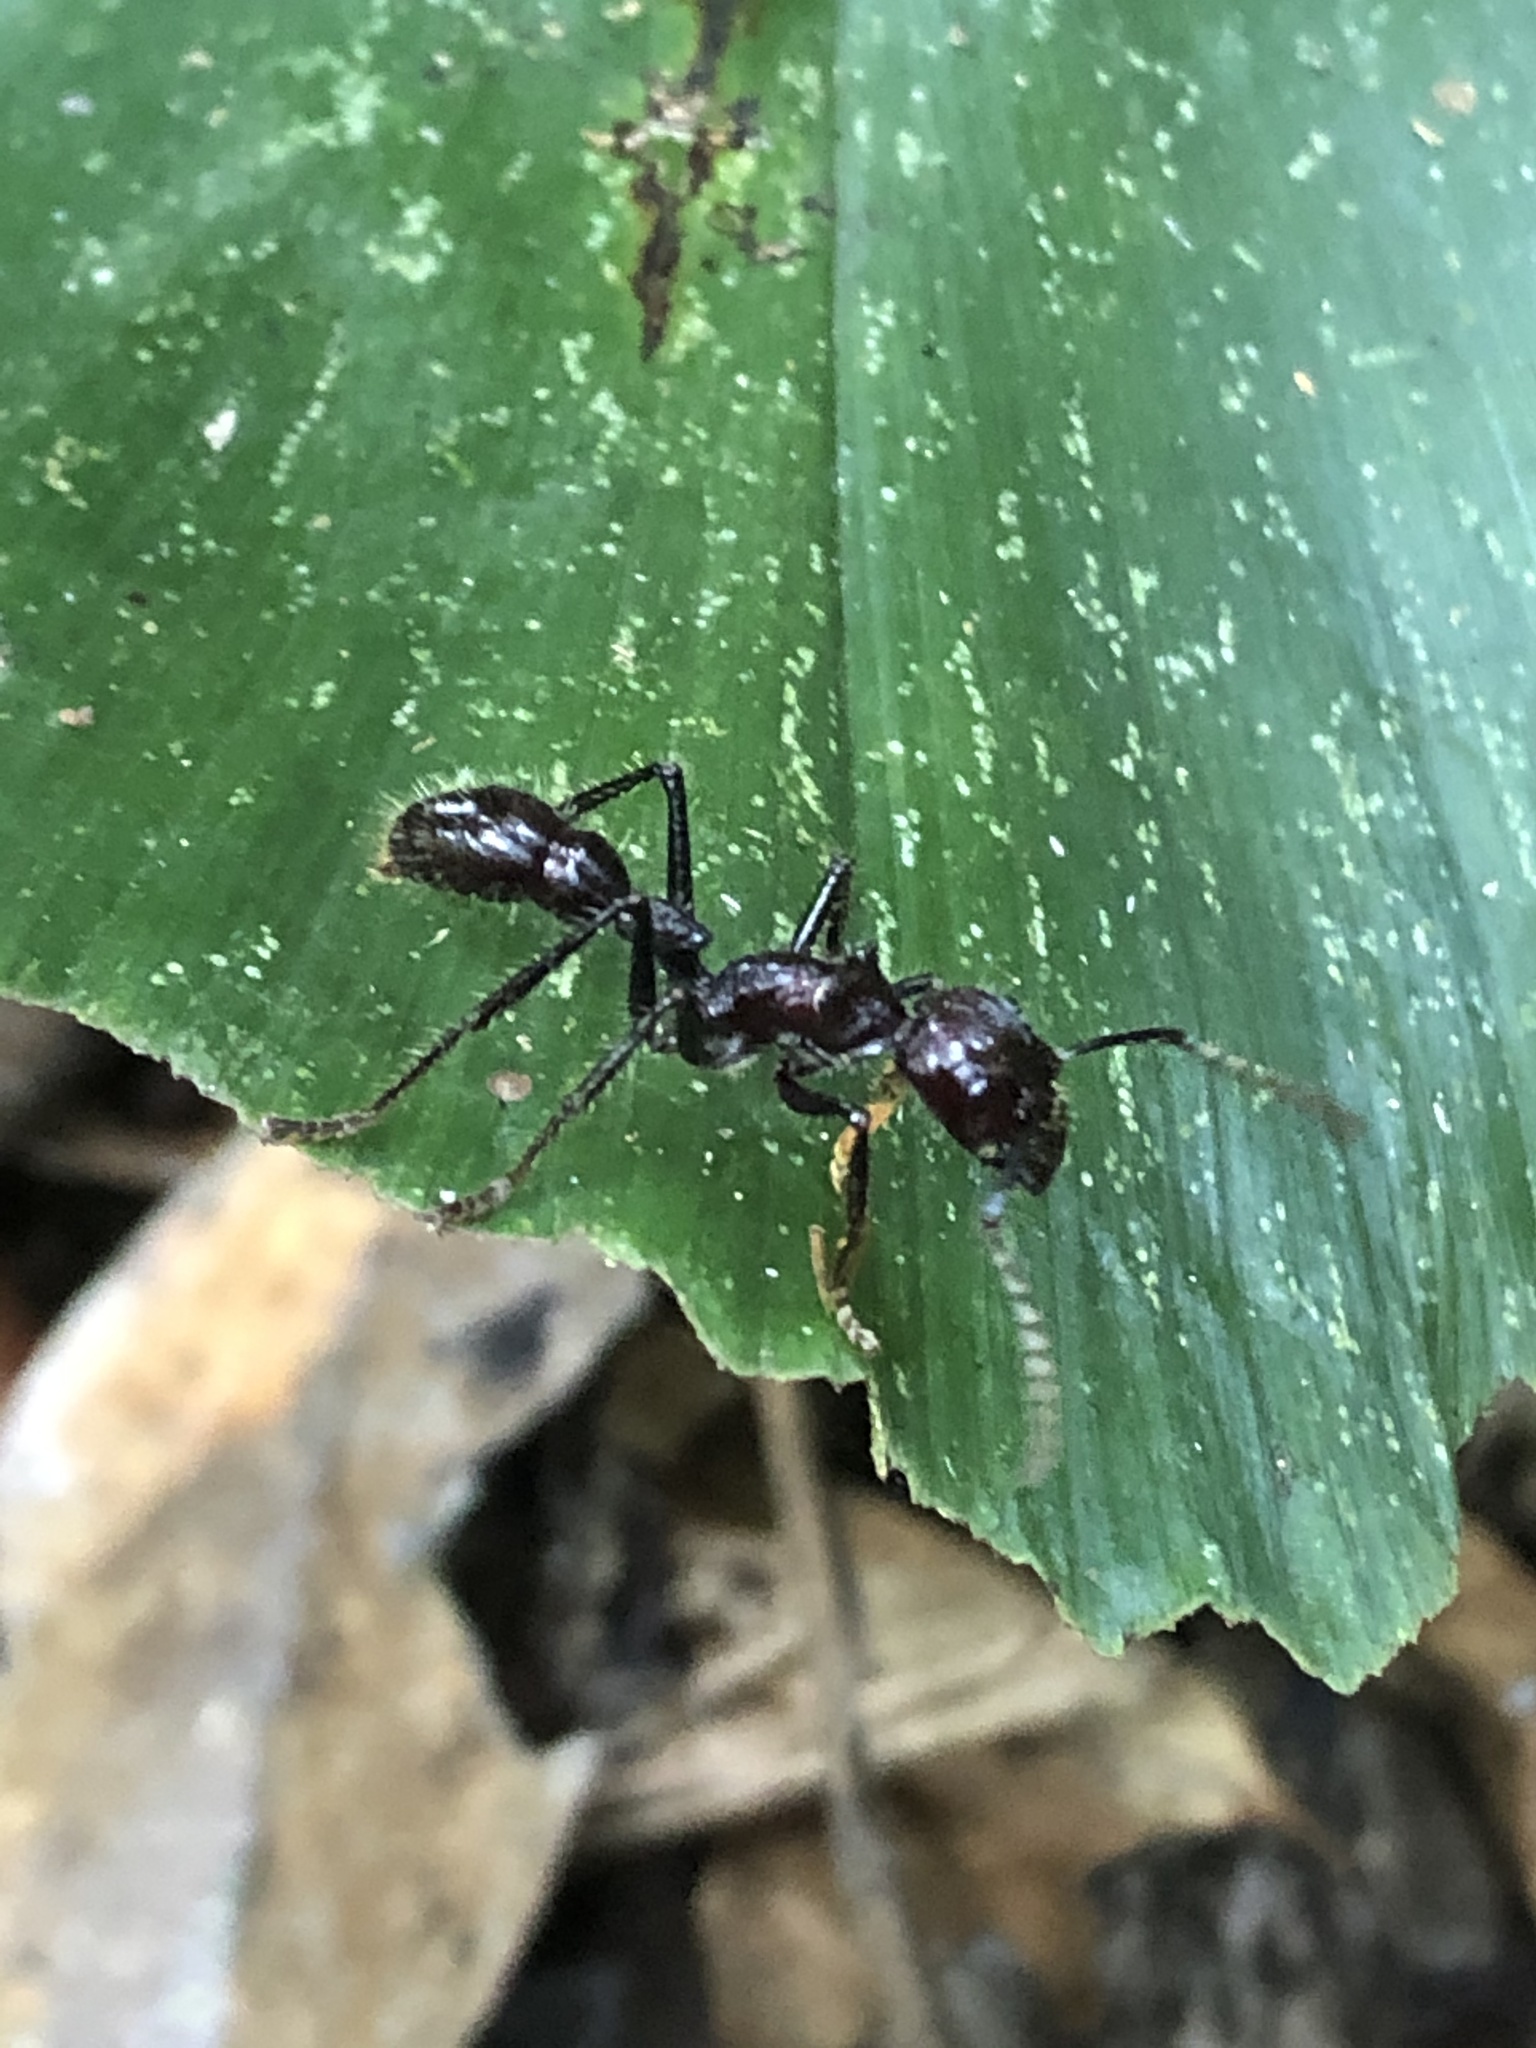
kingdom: Animalia
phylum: Arthropoda
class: Insecta
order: Hymenoptera
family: Formicidae
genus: Paraponera
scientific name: Paraponera clavata
